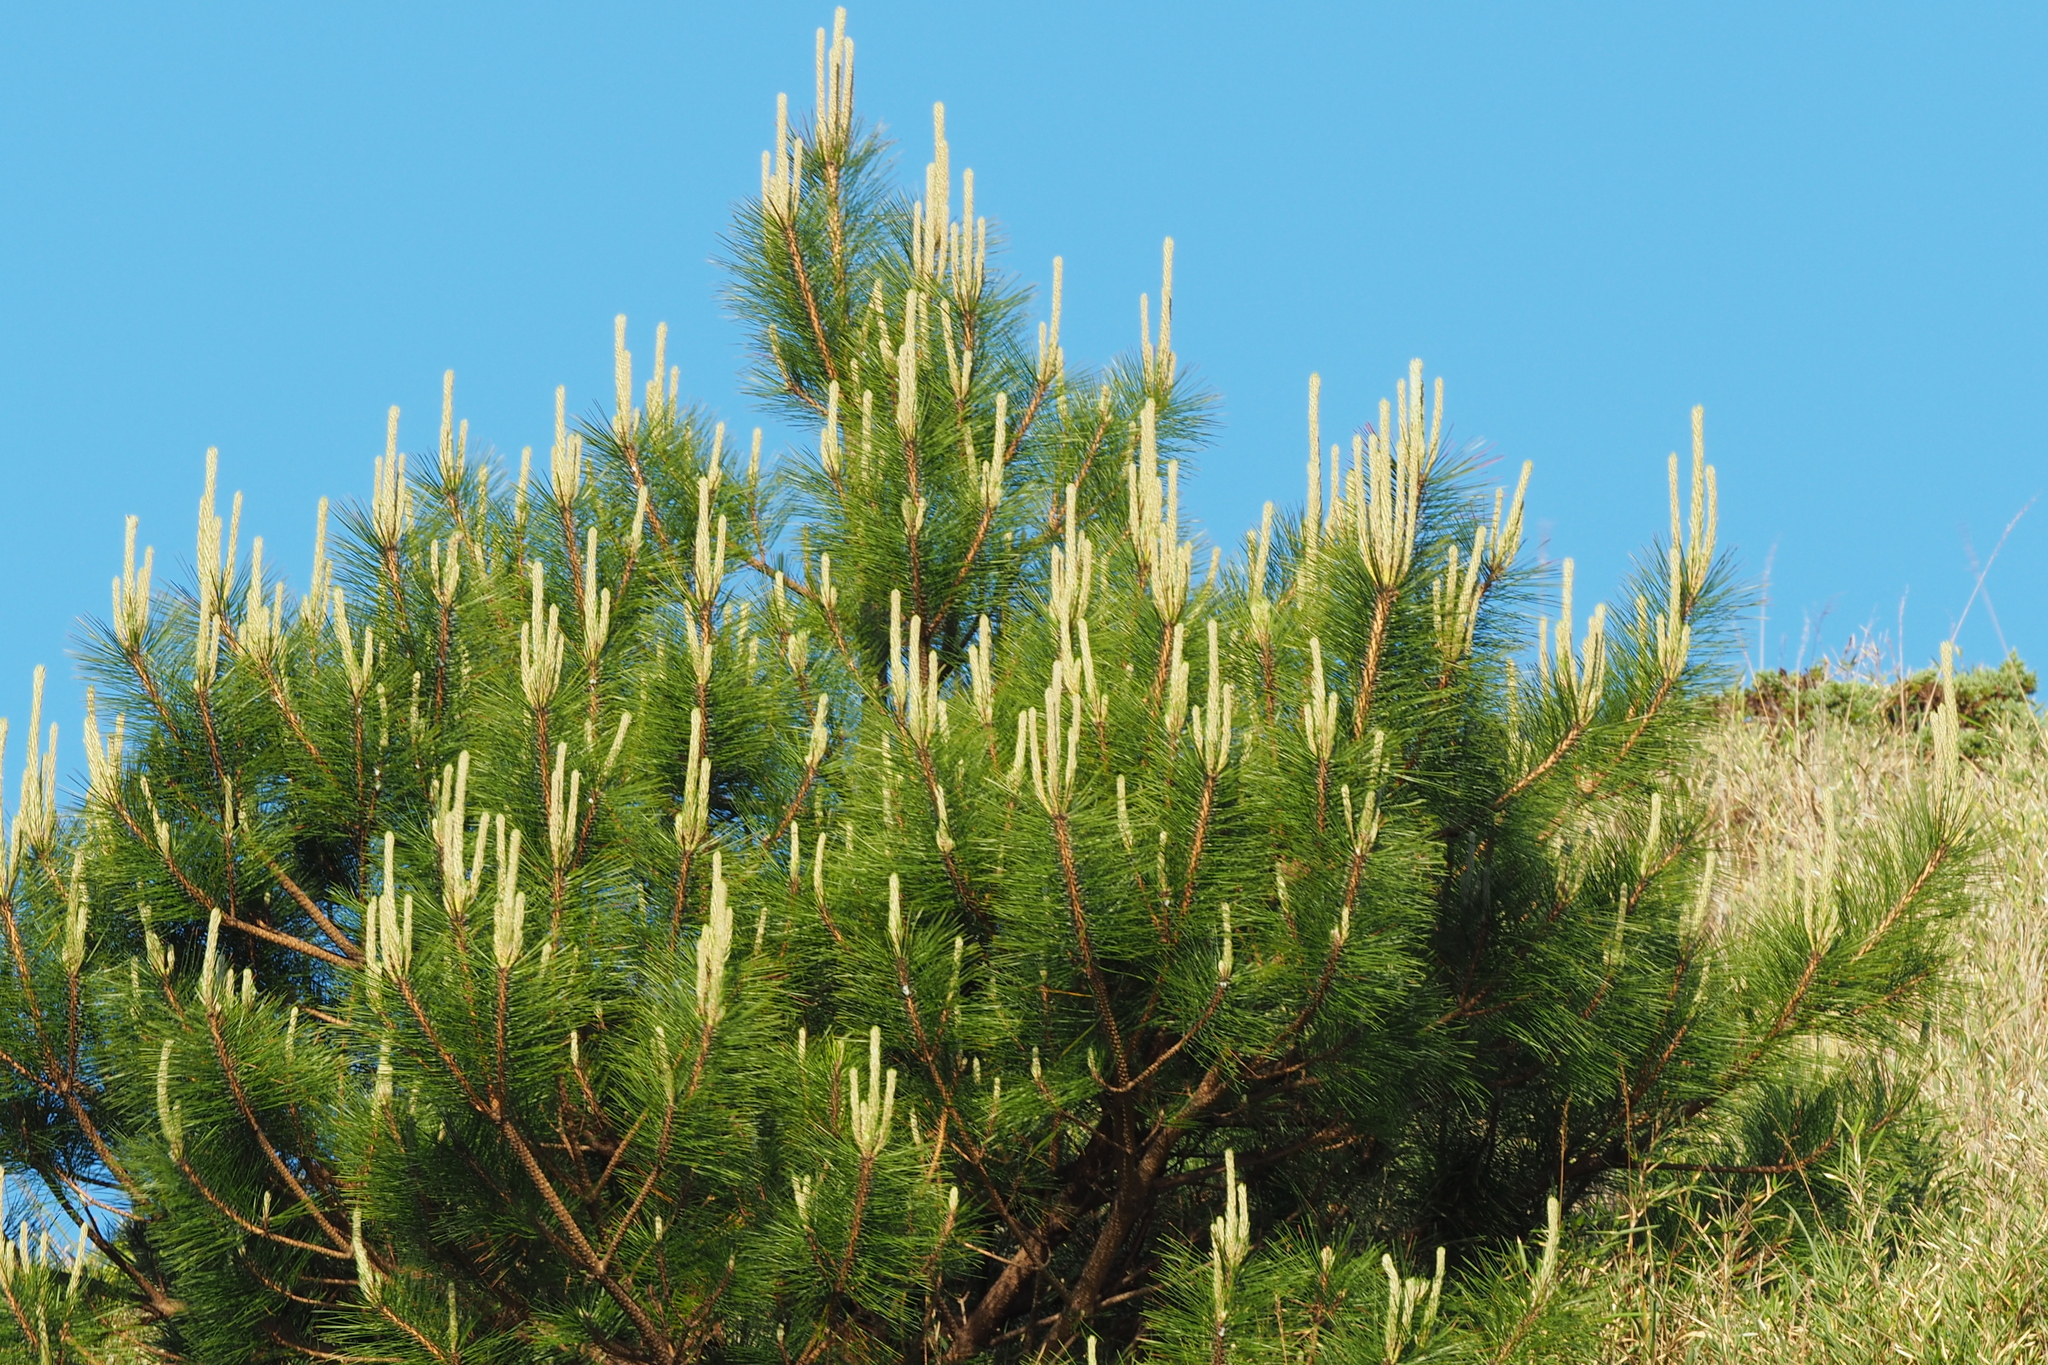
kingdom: Plantae
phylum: Tracheophyta
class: Pinopsida
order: Pinales
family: Pinaceae
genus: Pinus
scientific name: Pinus taiwanensis
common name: Formosa pine
